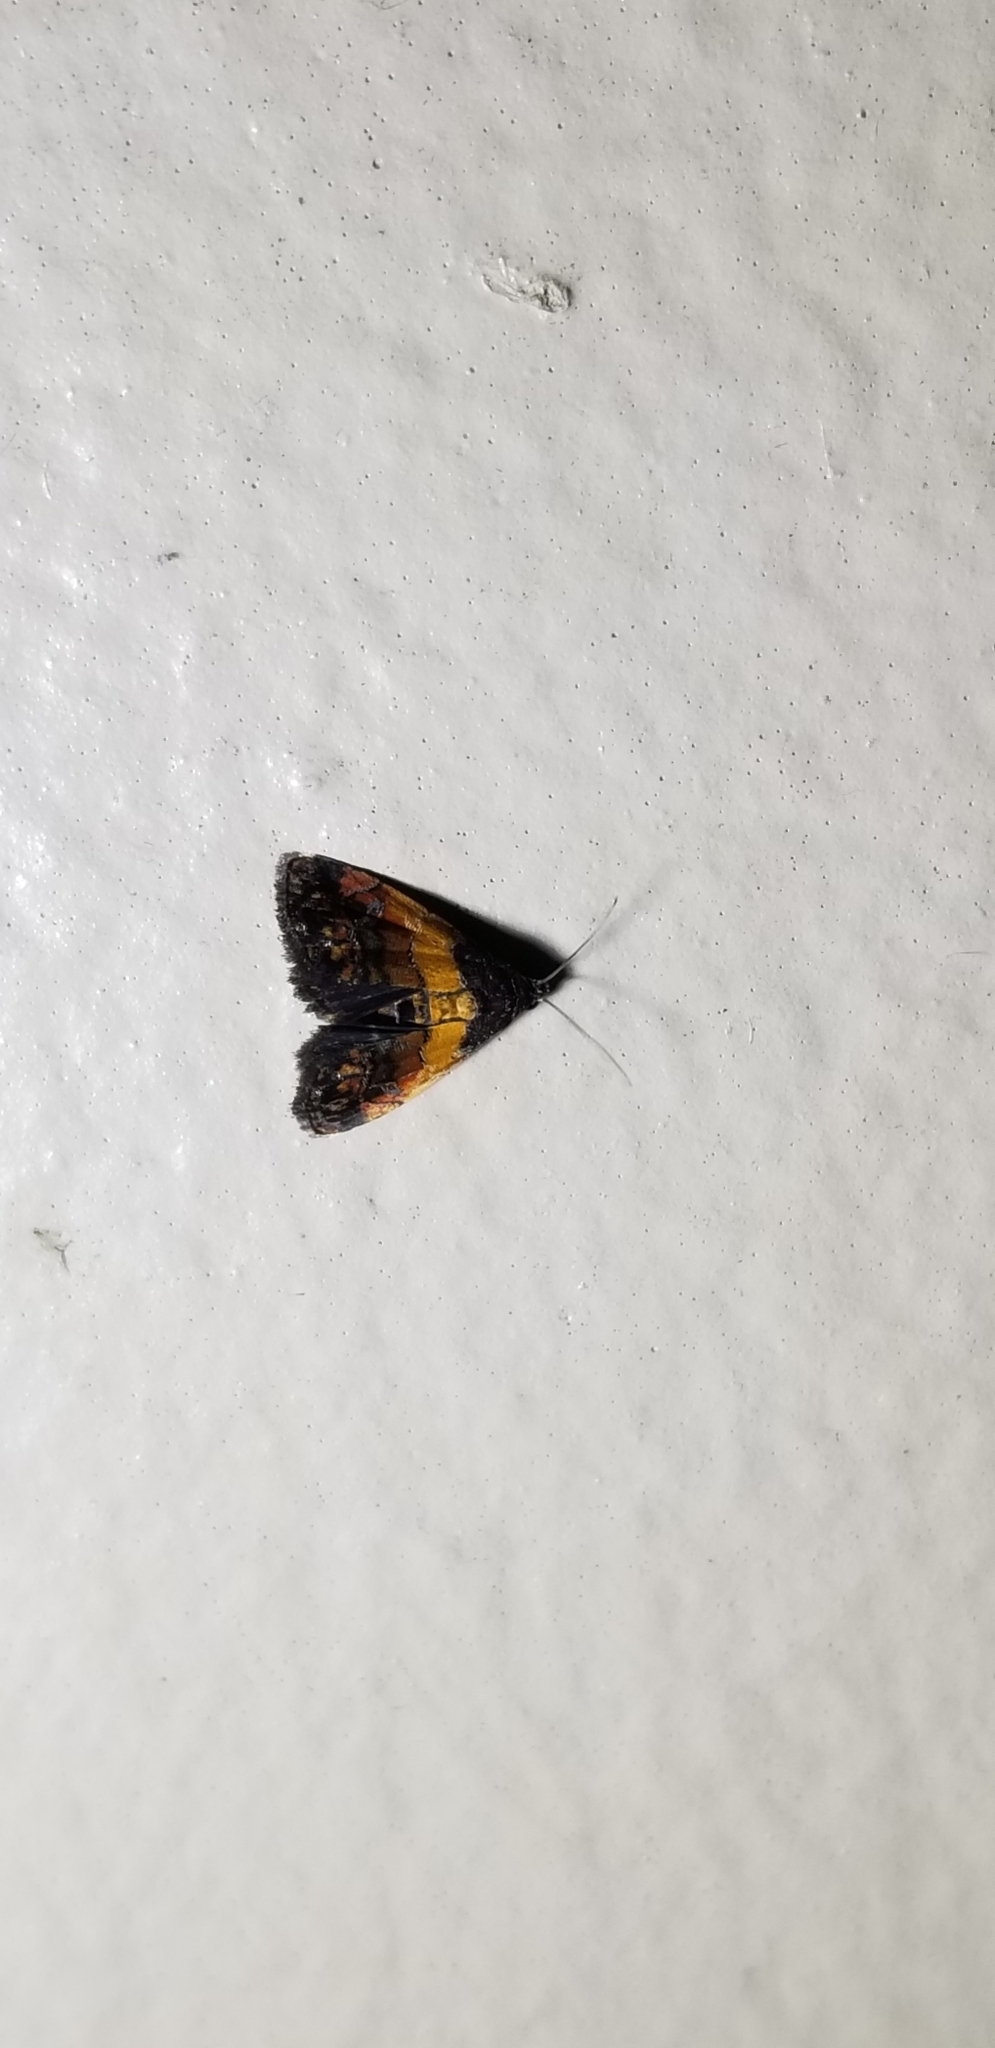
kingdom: Animalia
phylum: Arthropoda
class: Insecta
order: Lepidoptera
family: Noctuidae
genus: Tripudia
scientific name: Tripudia flavofasciata
